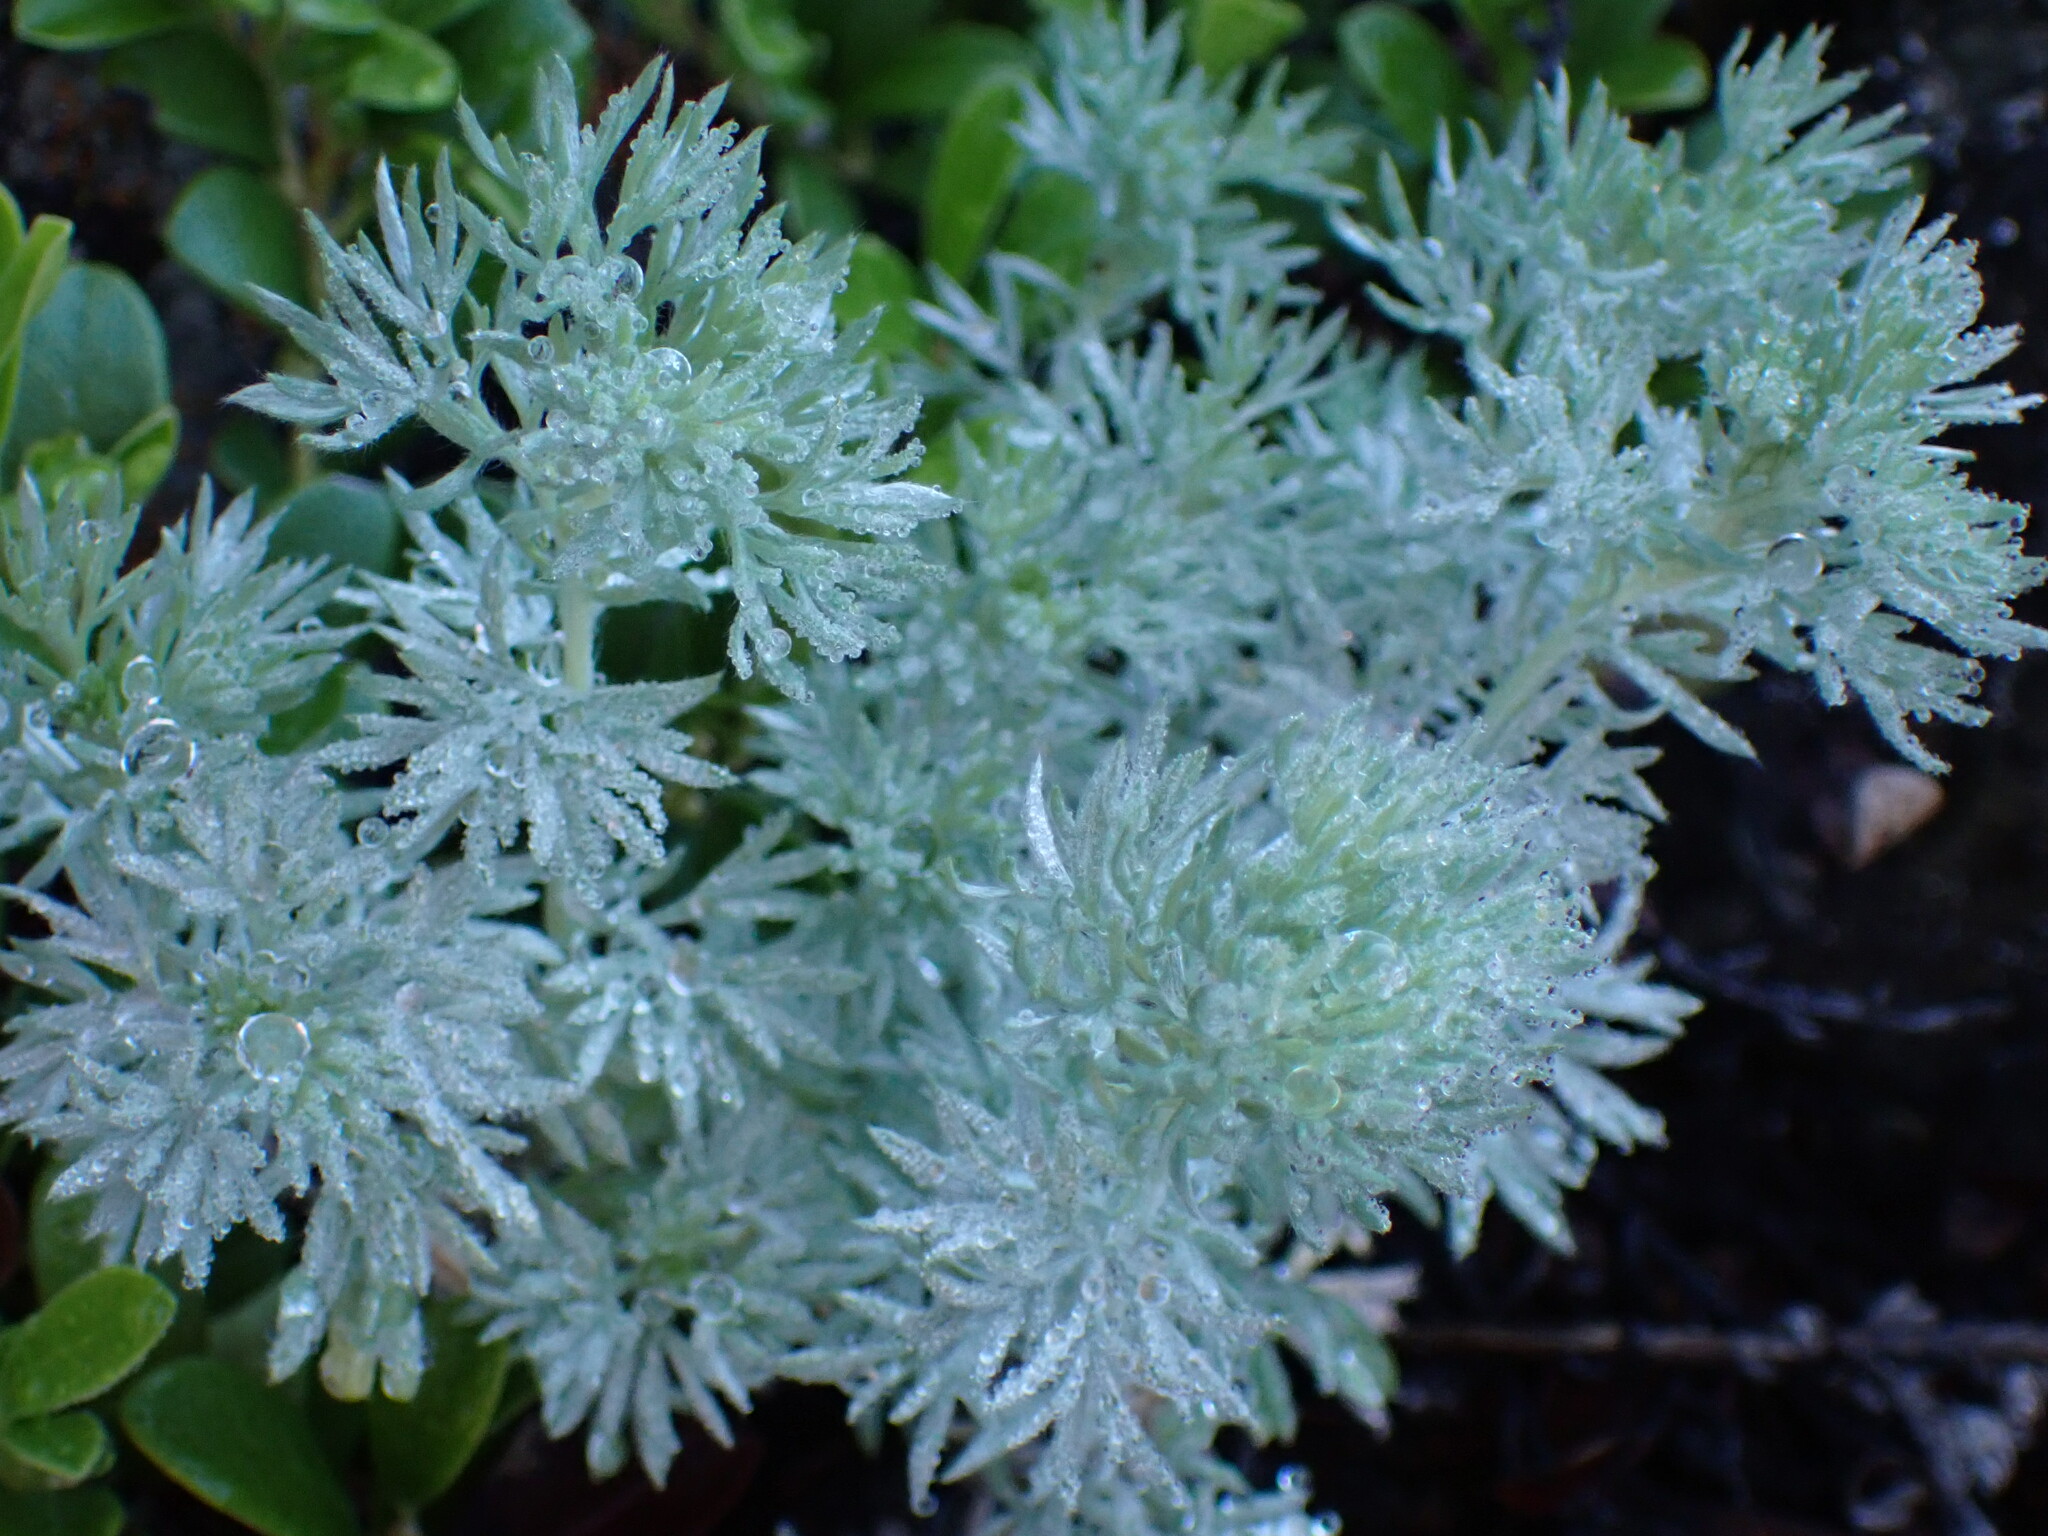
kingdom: Plantae
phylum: Tracheophyta
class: Magnoliopsida
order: Asterales
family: Asteraceae
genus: Artemisia
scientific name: Artemisia frigida
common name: Prairie sagewort
